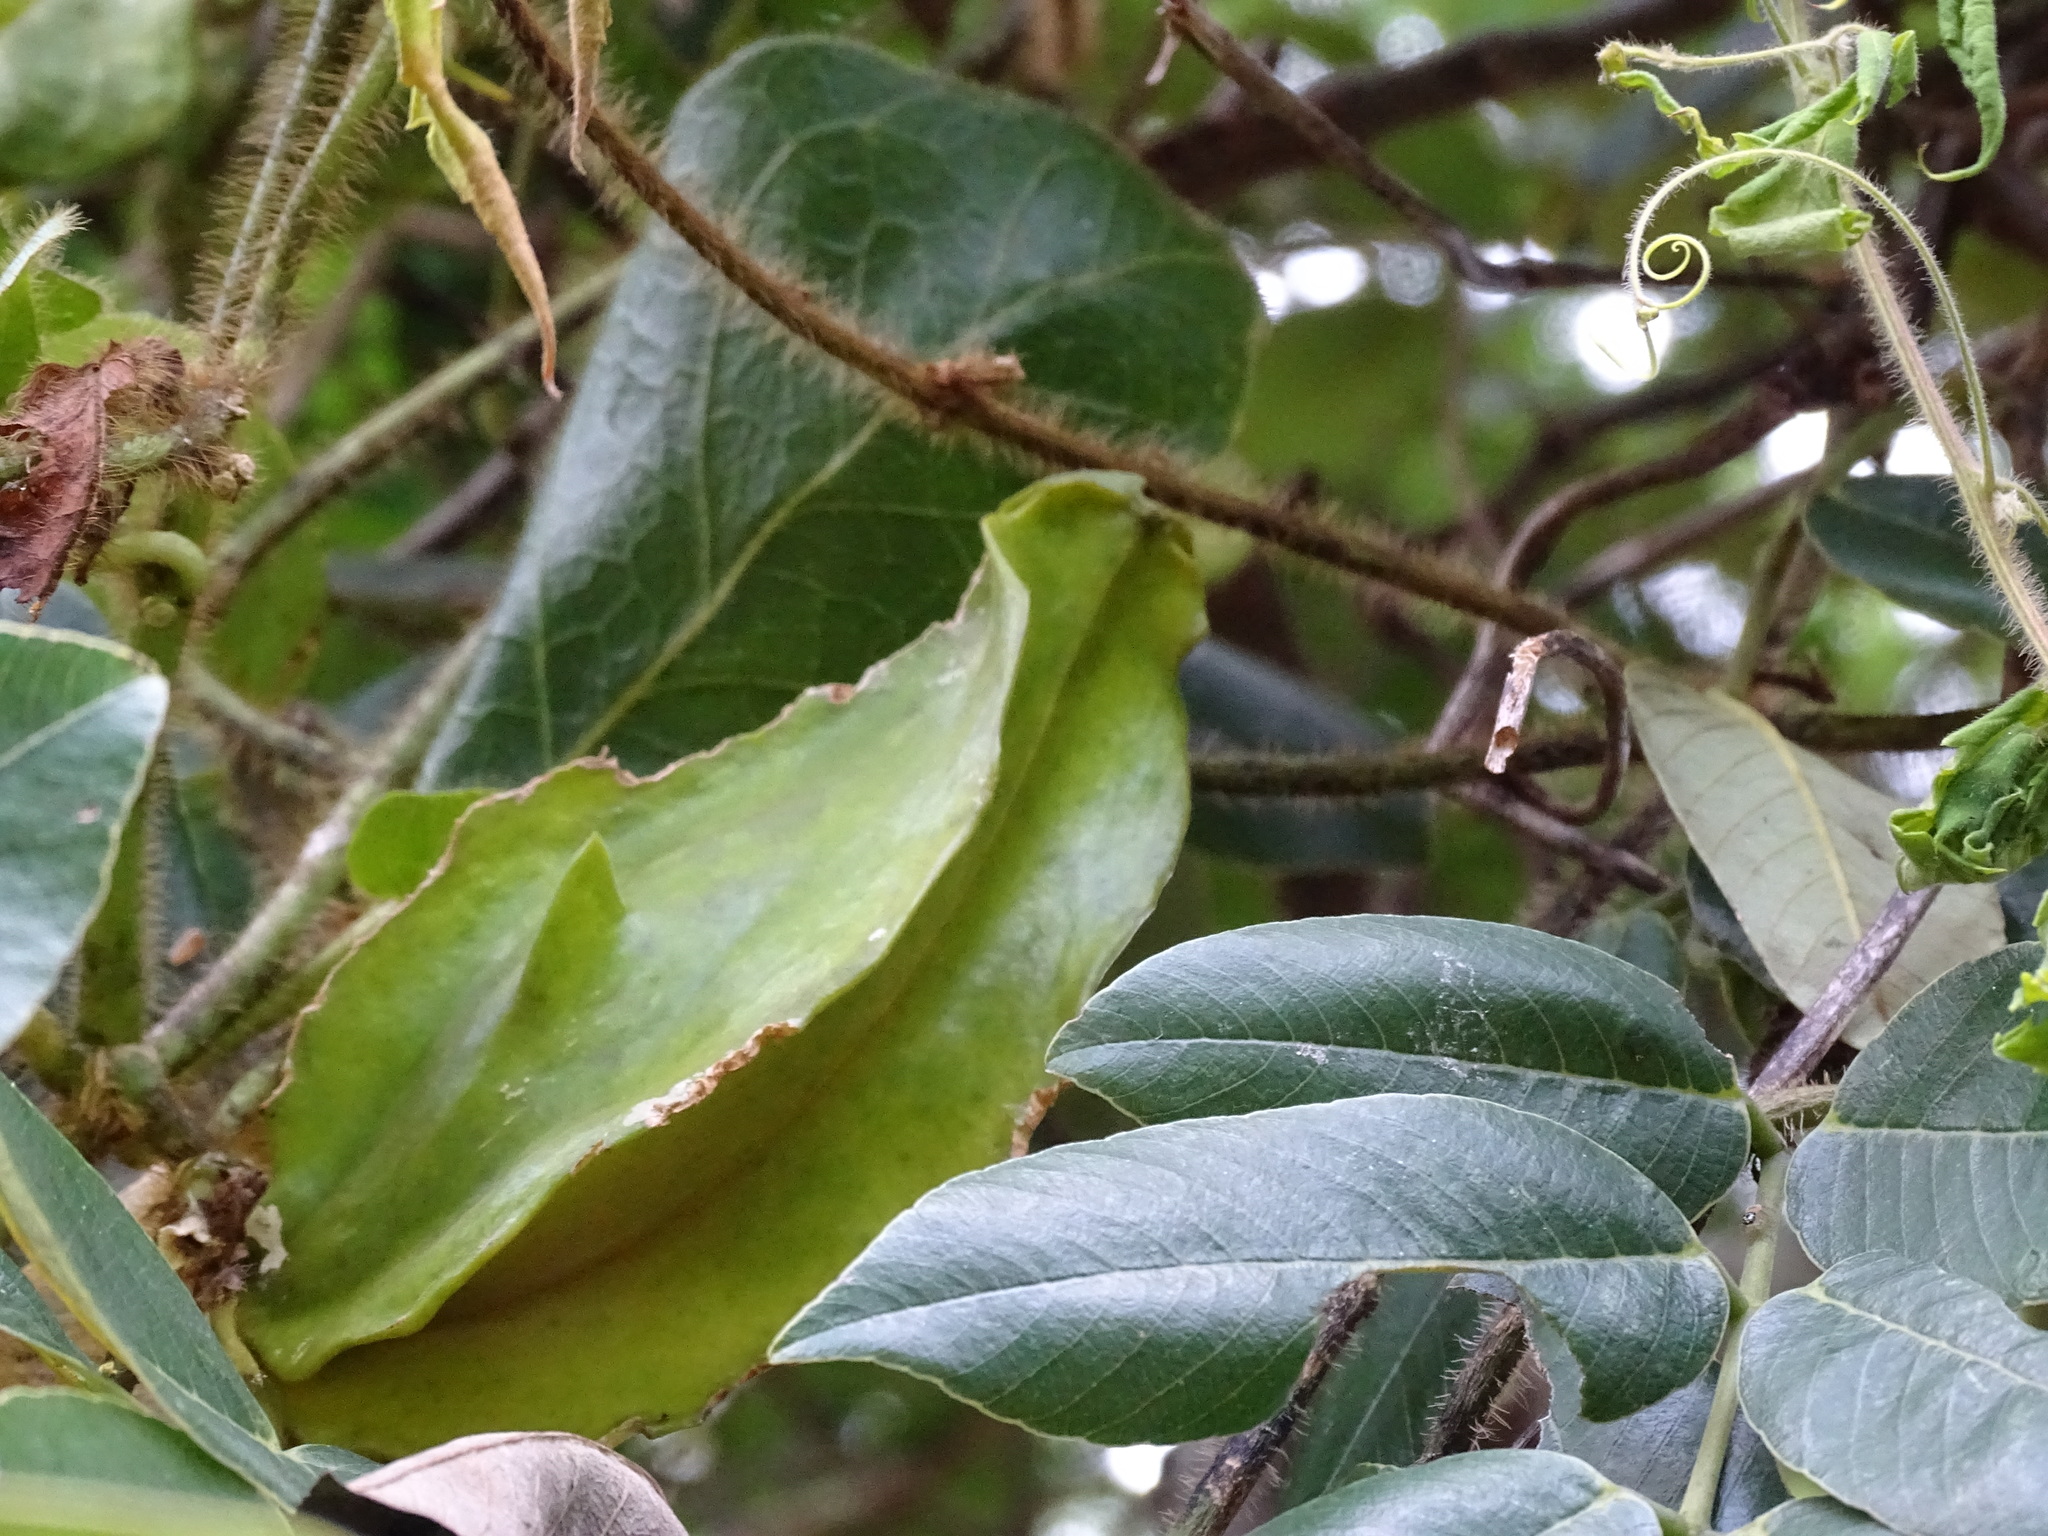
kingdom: Plantae
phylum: Tracheophyta
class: Magnoliopsida
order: Gentianales
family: Apocynaceae
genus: Macroscepis
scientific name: Macroscepis yucatanensis
